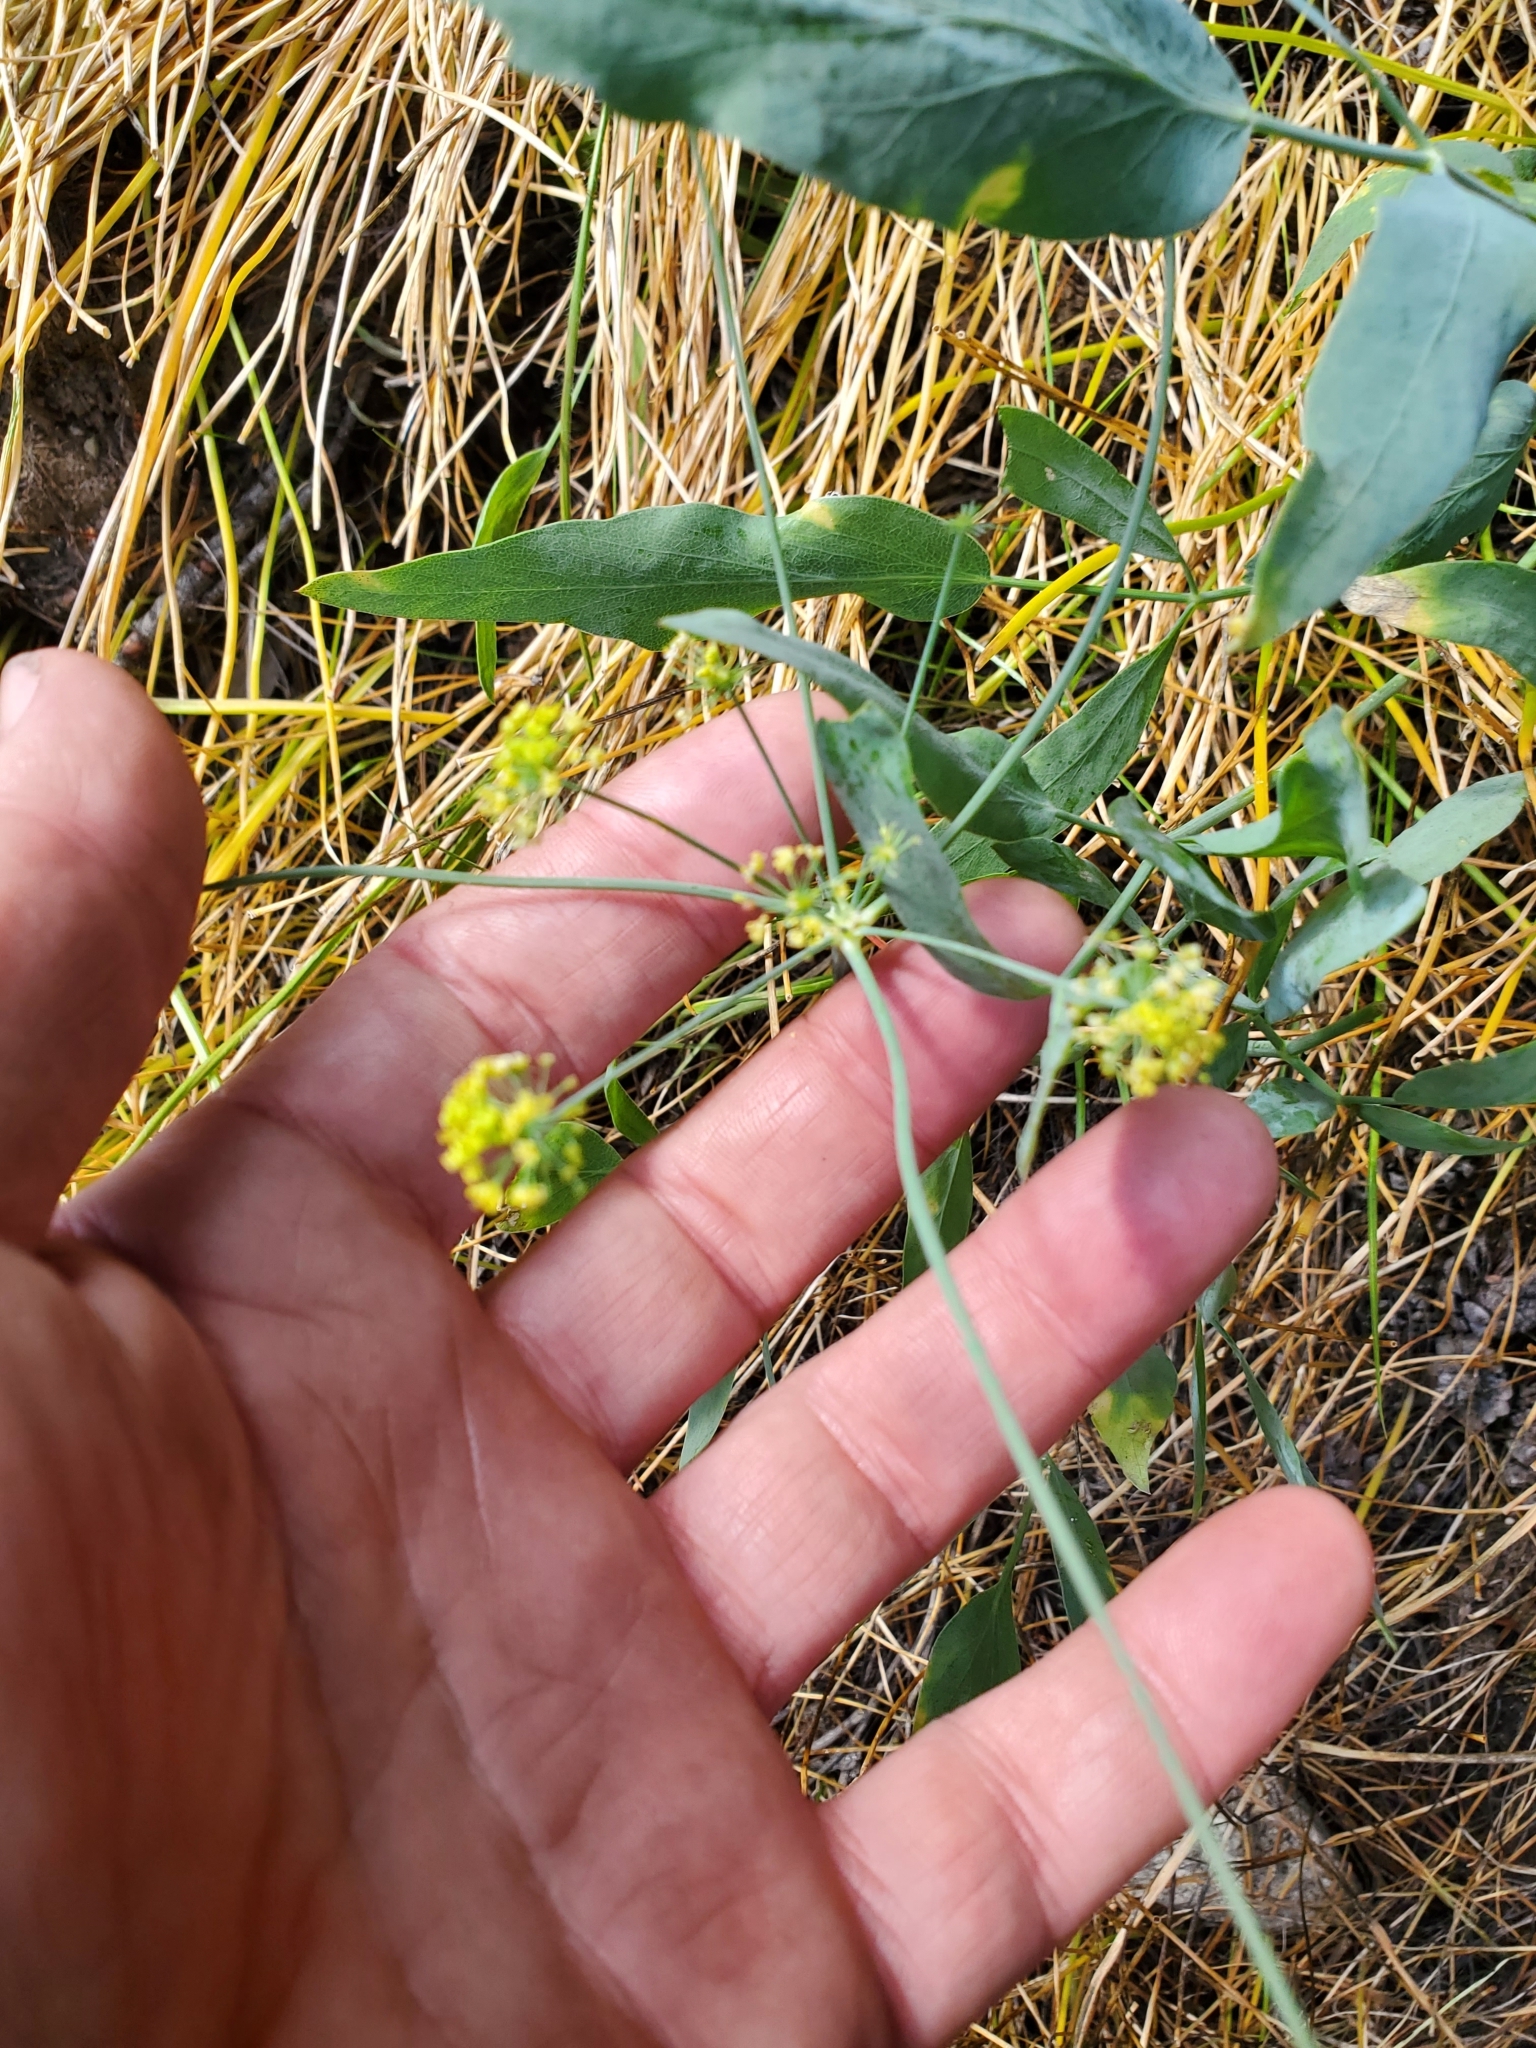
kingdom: Plantae
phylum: Tracheophyta
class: Magnoliopsida
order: Apiales
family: Apiaceae
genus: Lomatium
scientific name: Lomatium nudicaule
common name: Pestle lomatium
